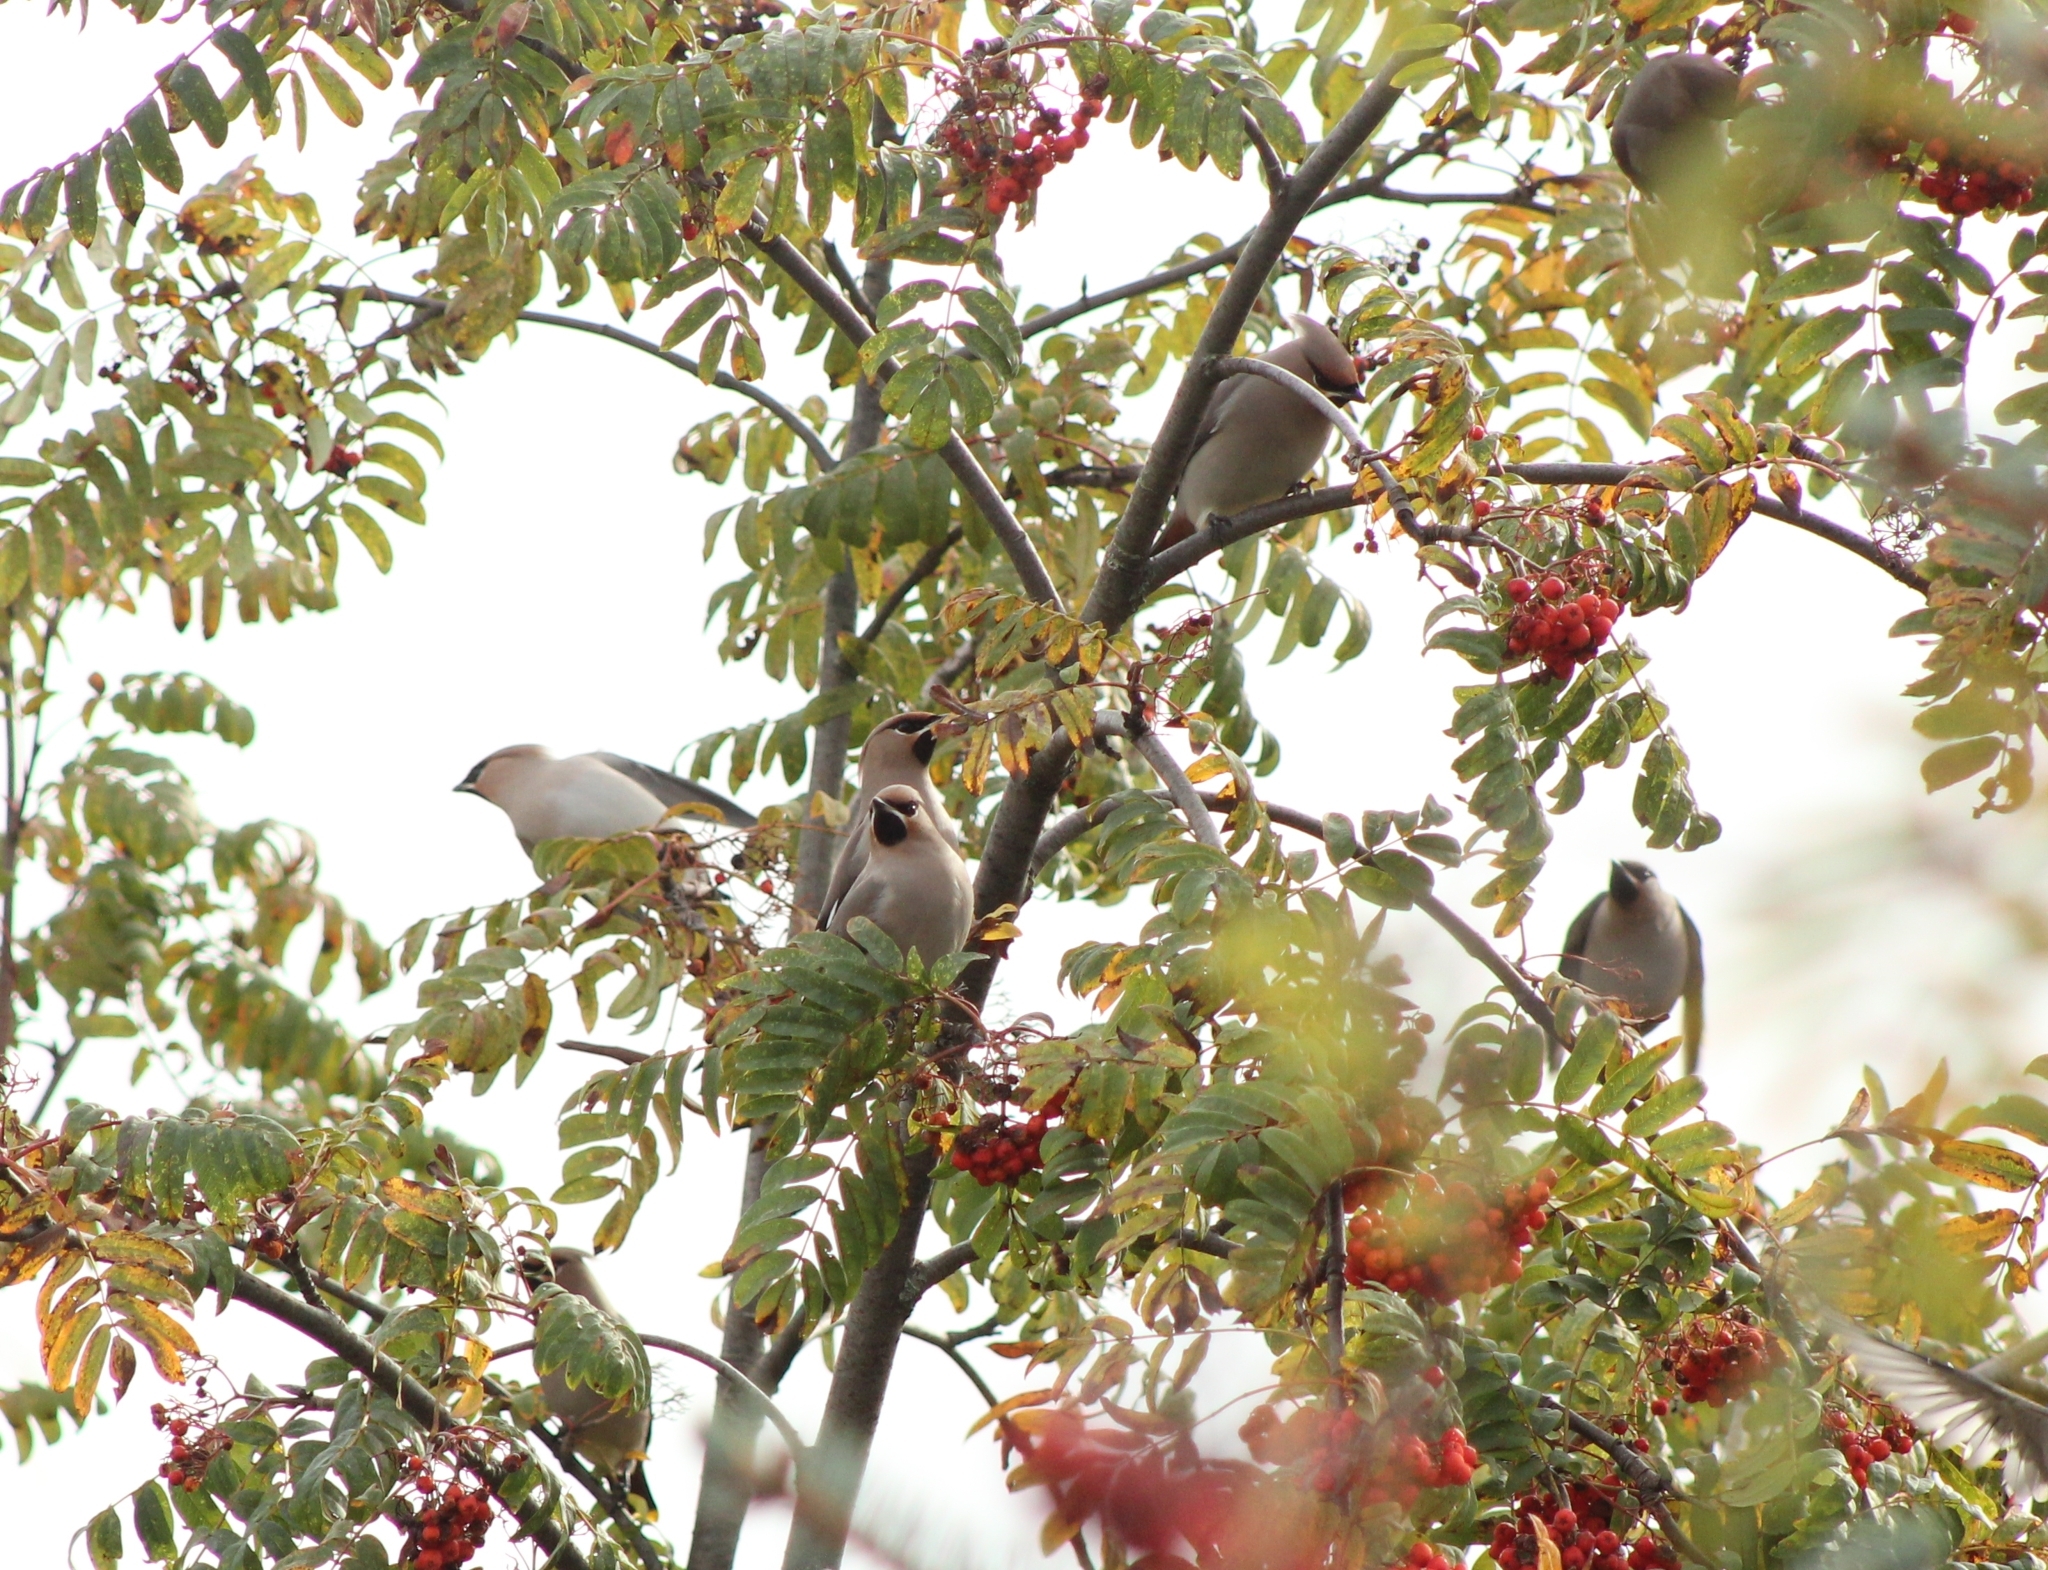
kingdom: Animalia
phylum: Chordata
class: Aves
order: Passeriformes
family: Bombycillidae
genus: Bombycilla
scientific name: Bombycilla garrulus
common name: Bohemian waxwing
